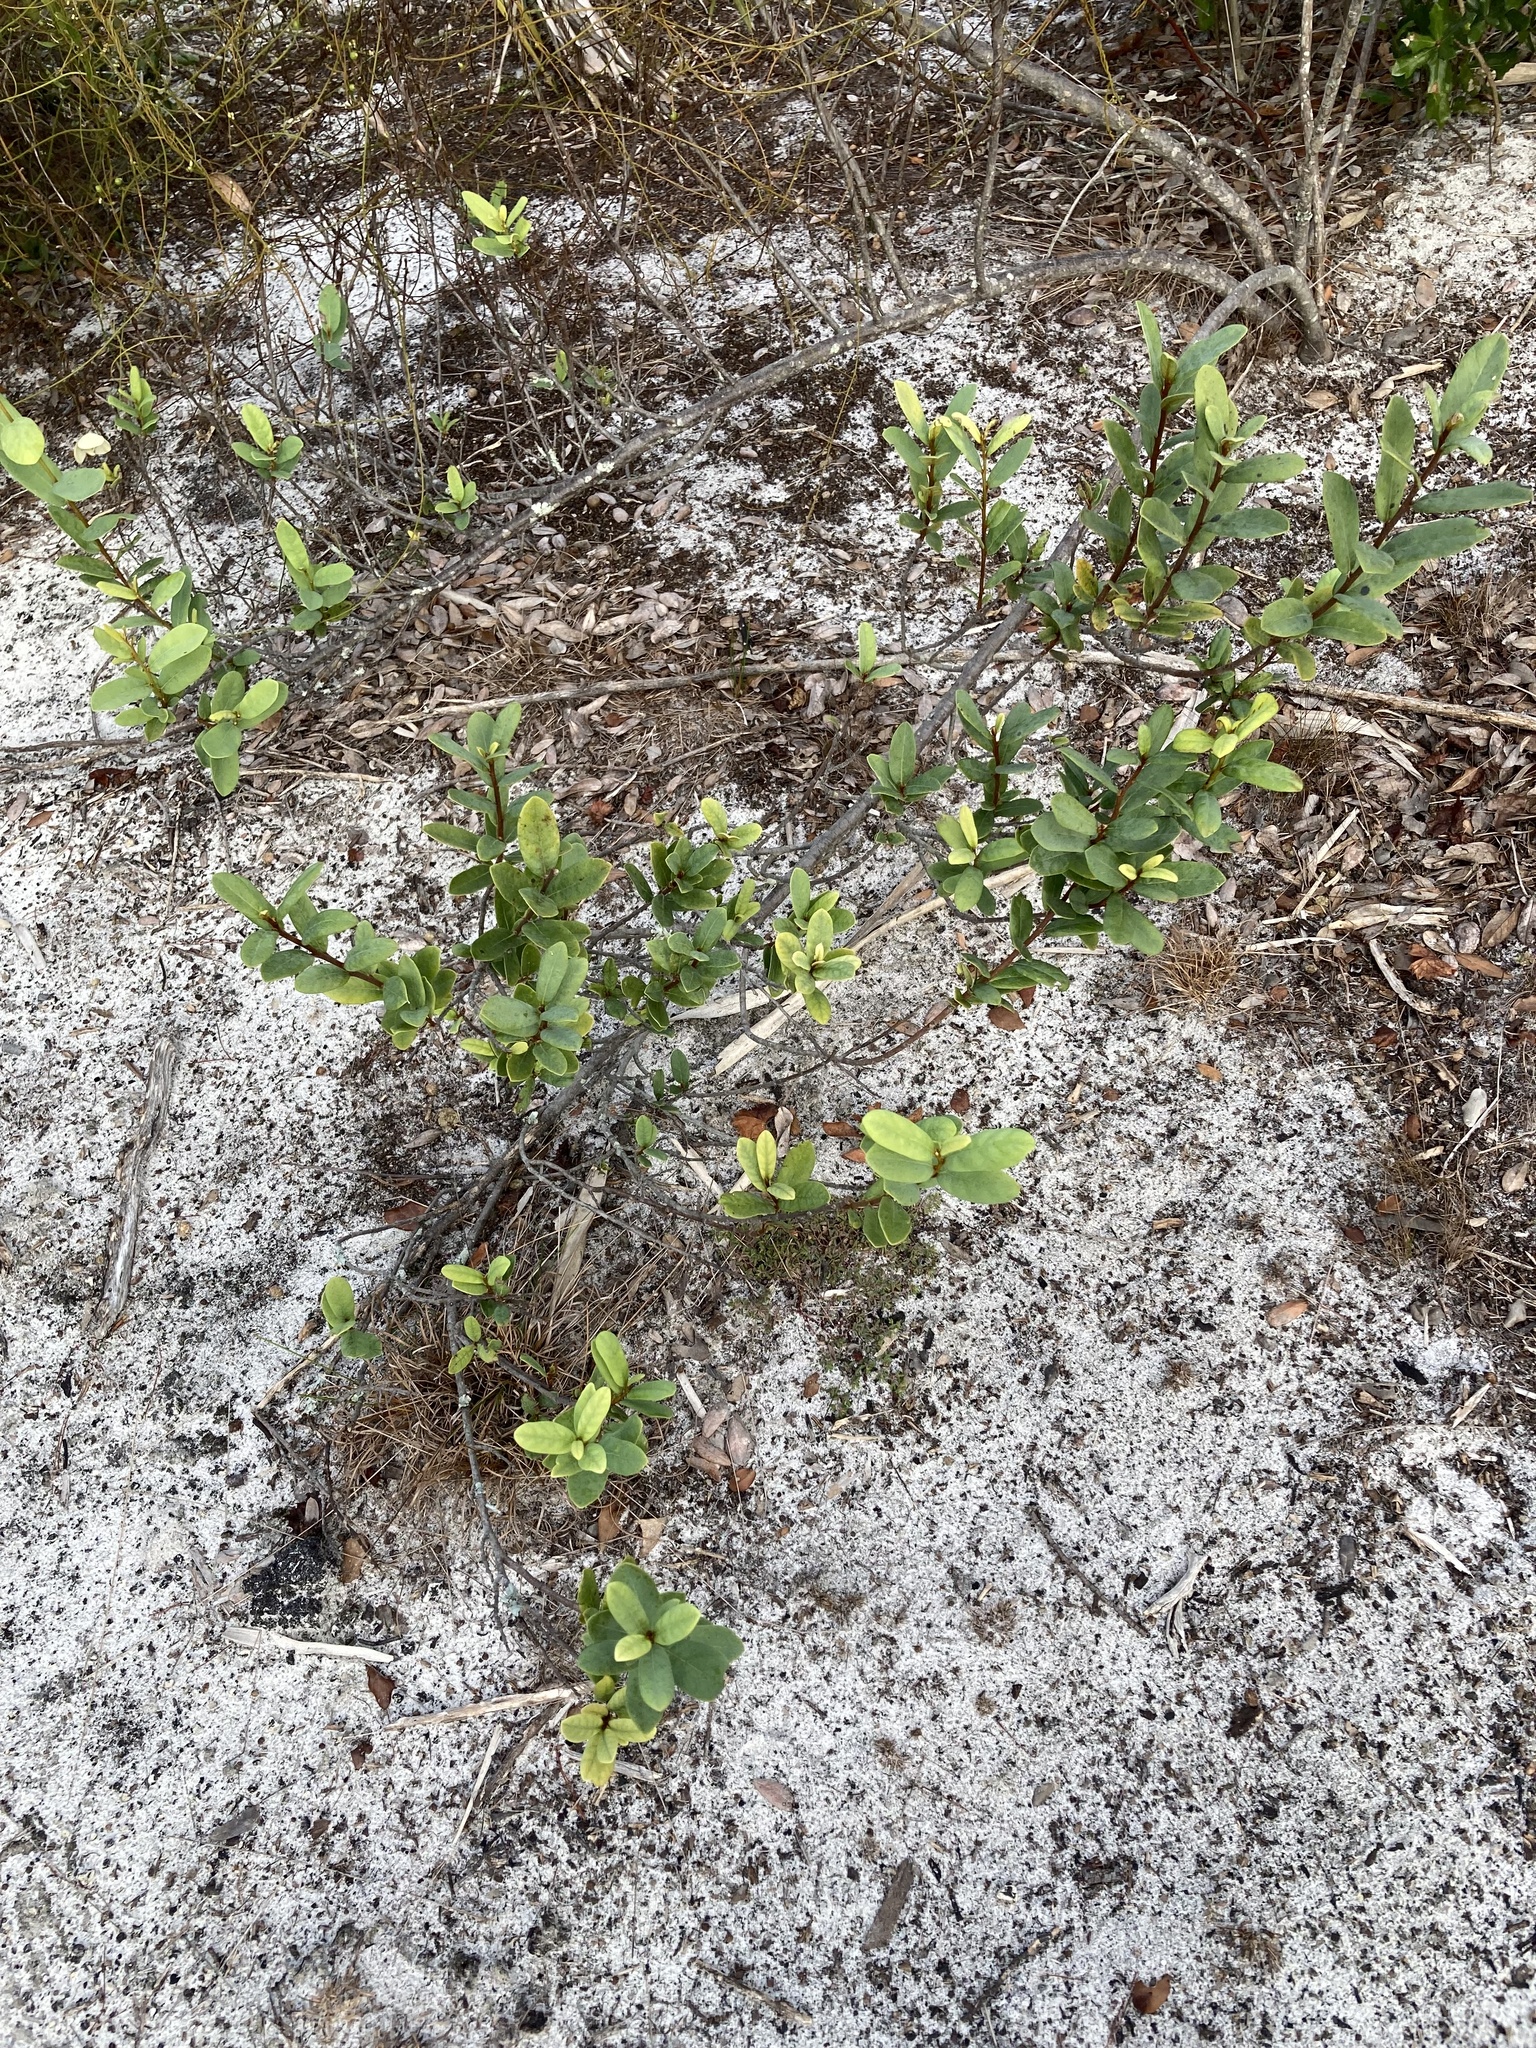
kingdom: Plantae
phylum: Tracheophyta
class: Magnoliopsida
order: Magnoliales
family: Annonaceae
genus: Asimina
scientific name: Asimina reticulata
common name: Flag pawpaw
